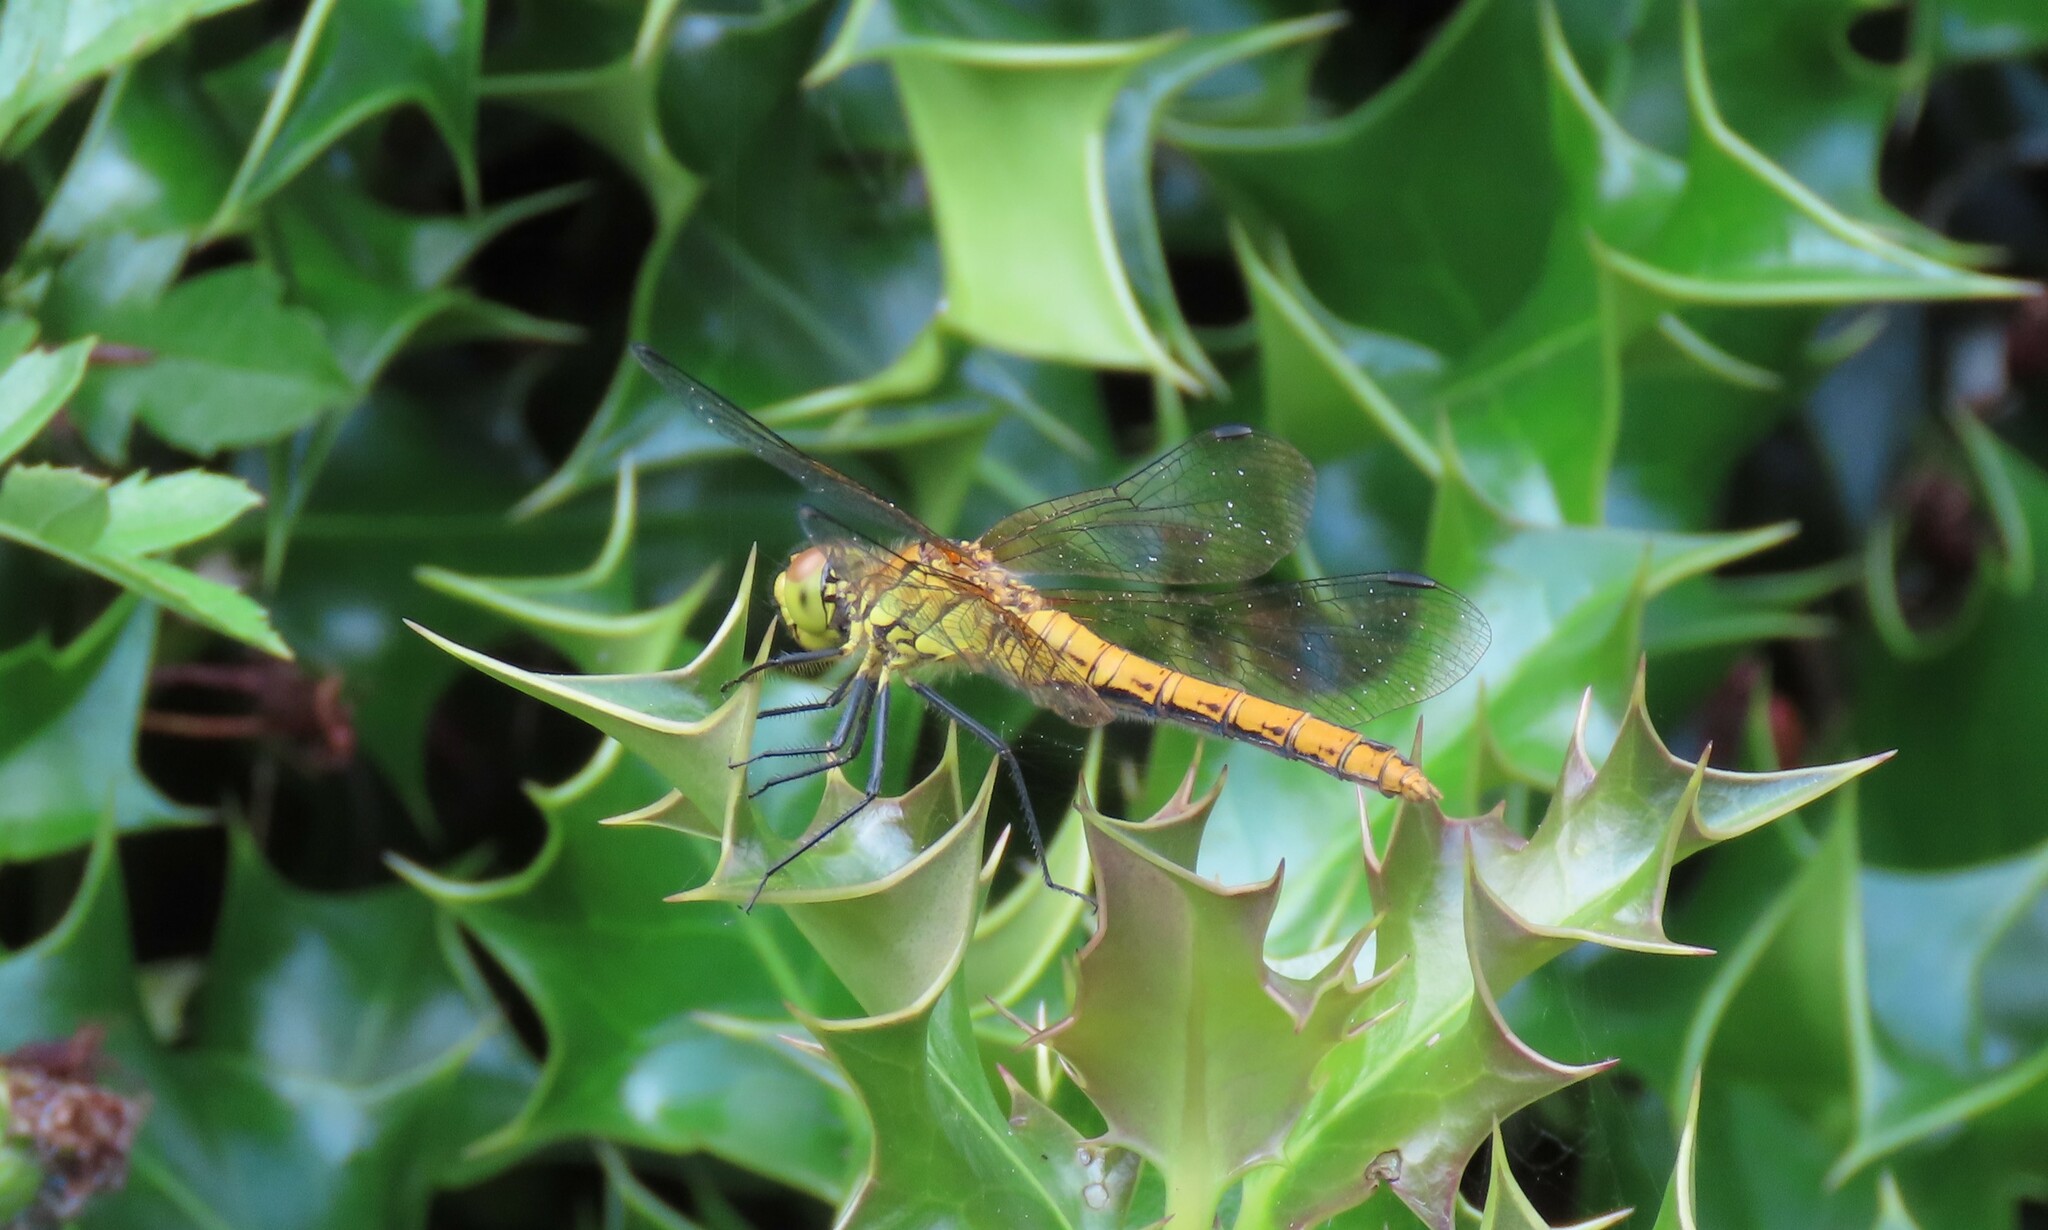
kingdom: Animalia
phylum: Arthropoda
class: Insecta
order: Odonata
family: Libellulidae
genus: Sympetrum
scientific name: Sympetrum sanguineum
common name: Ruddy darter
